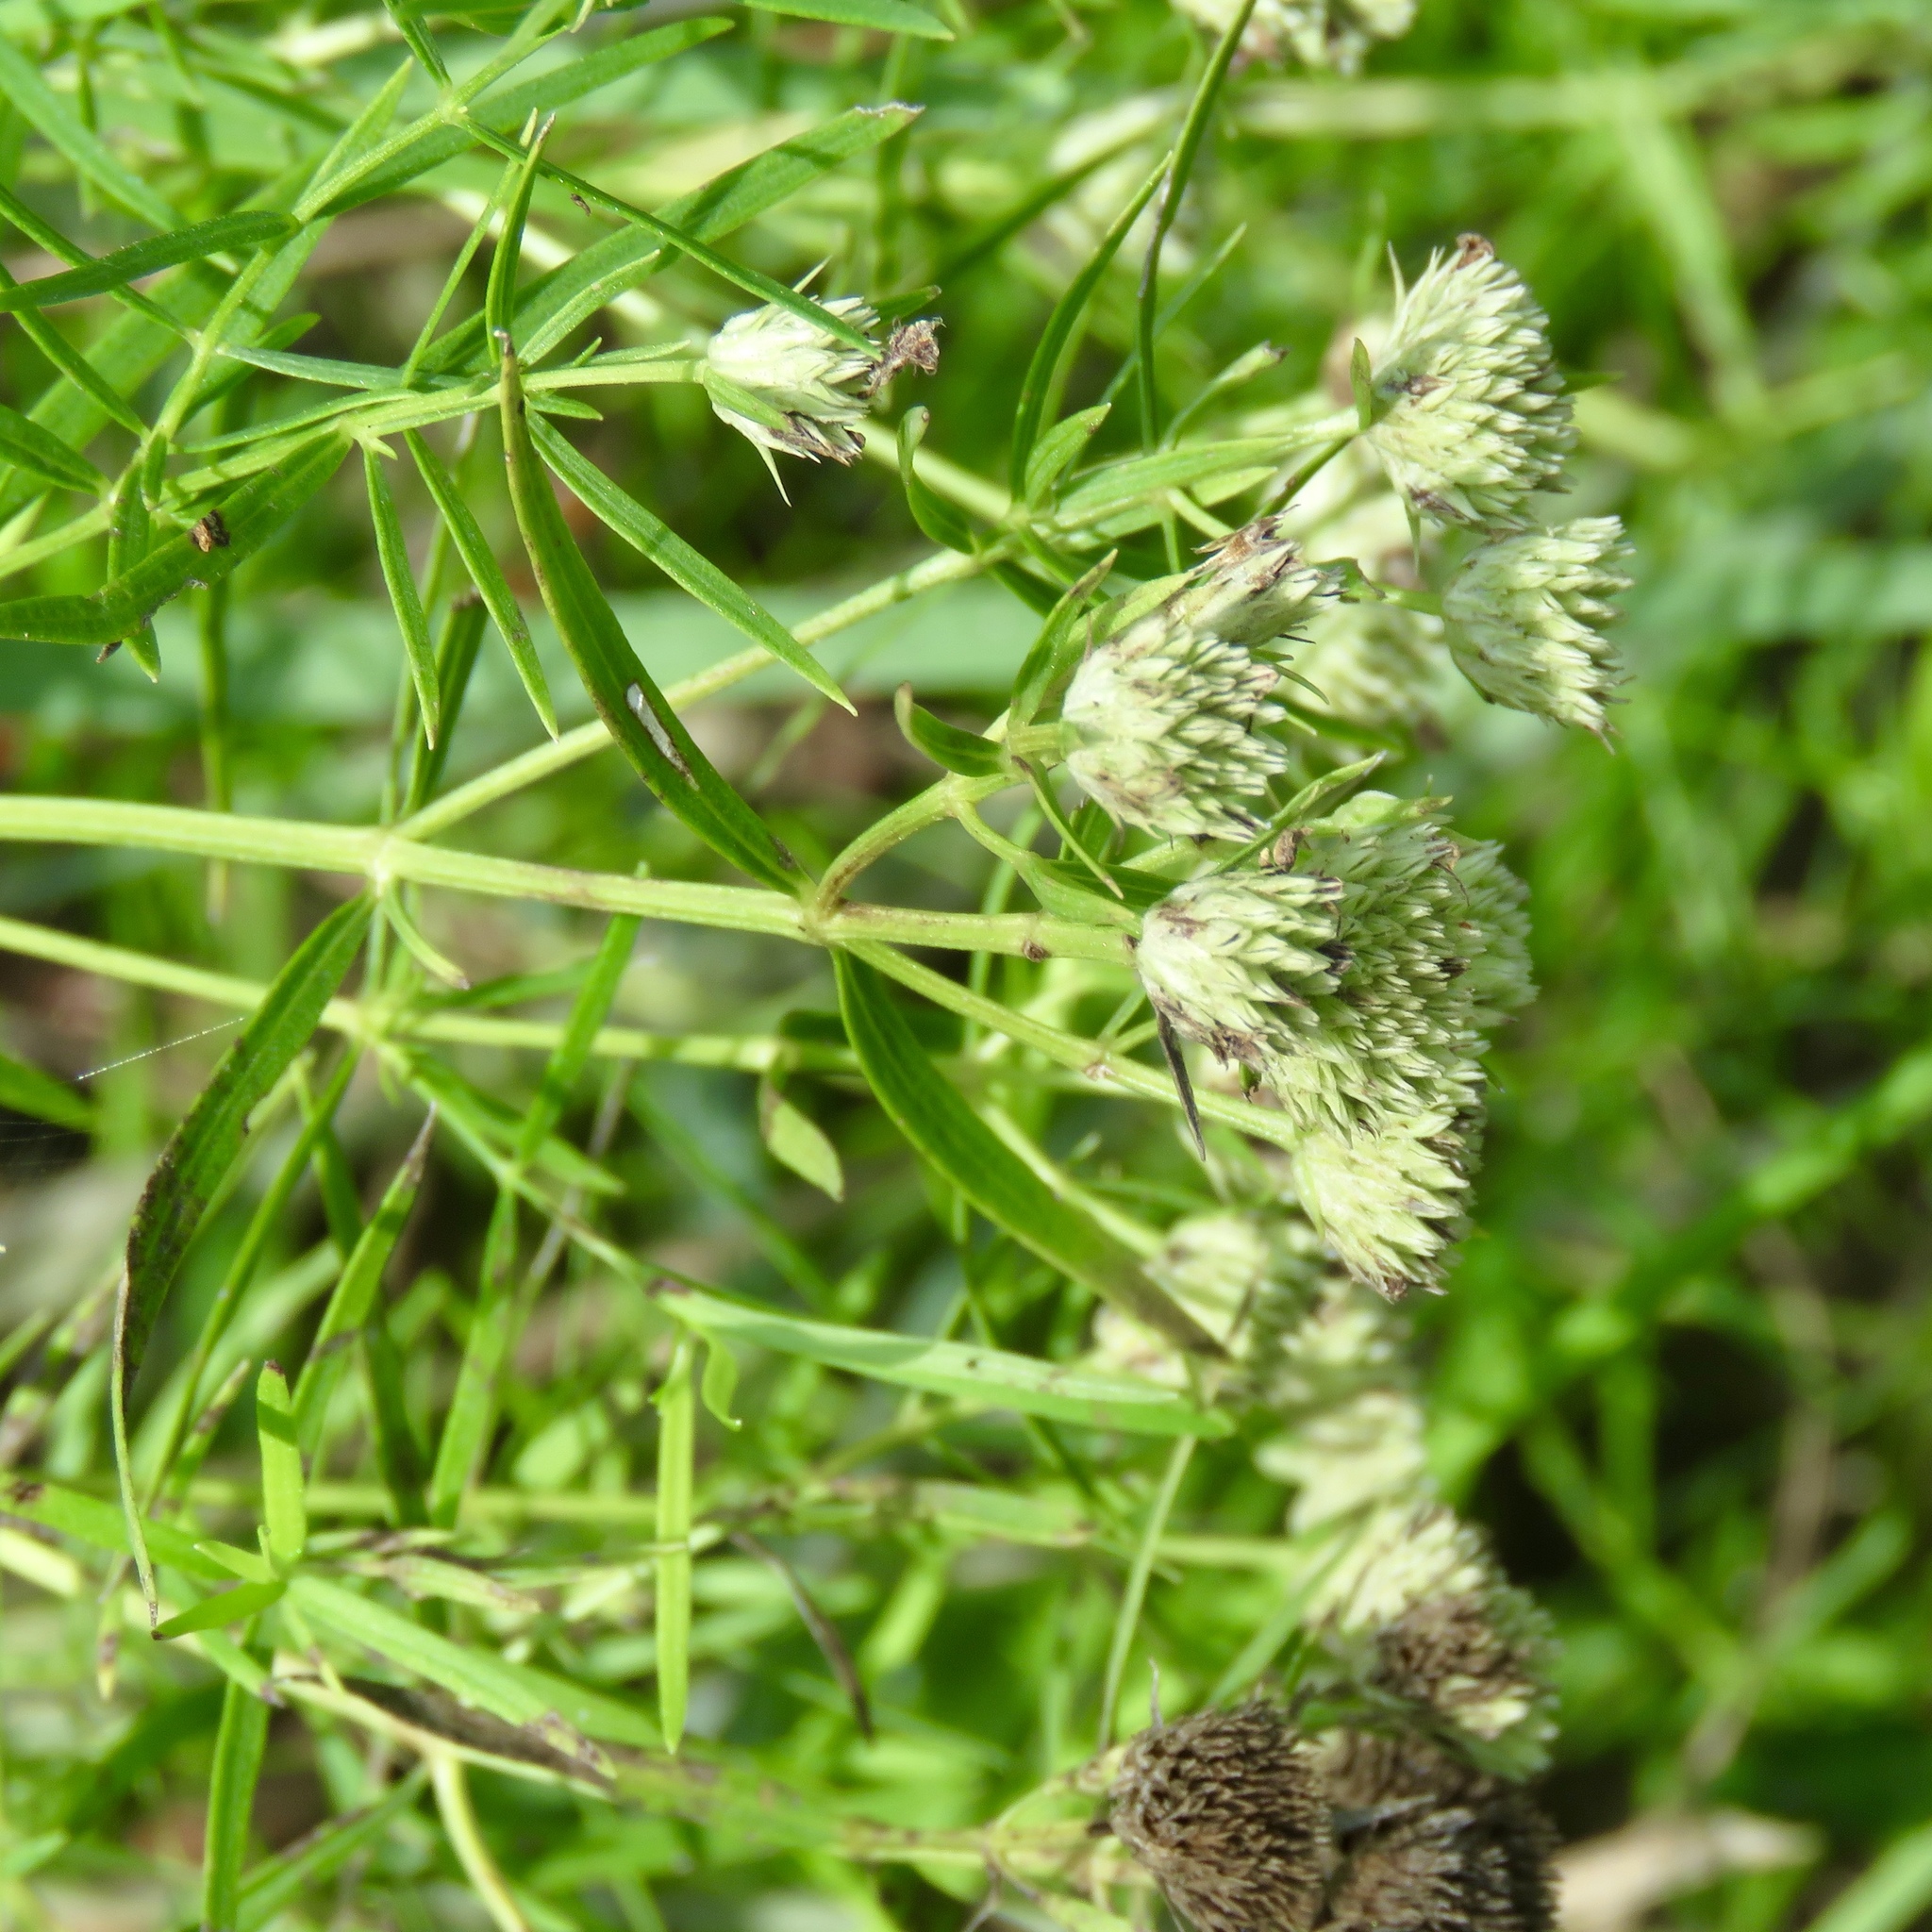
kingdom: Plantae
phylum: Tracheophyta
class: Magnoliopsida
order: Lamiales
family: Lamiaceae
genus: Pycnanthemum
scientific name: Pycnanthemum tenuifolium
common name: Narrow-leaf mountain-mint
